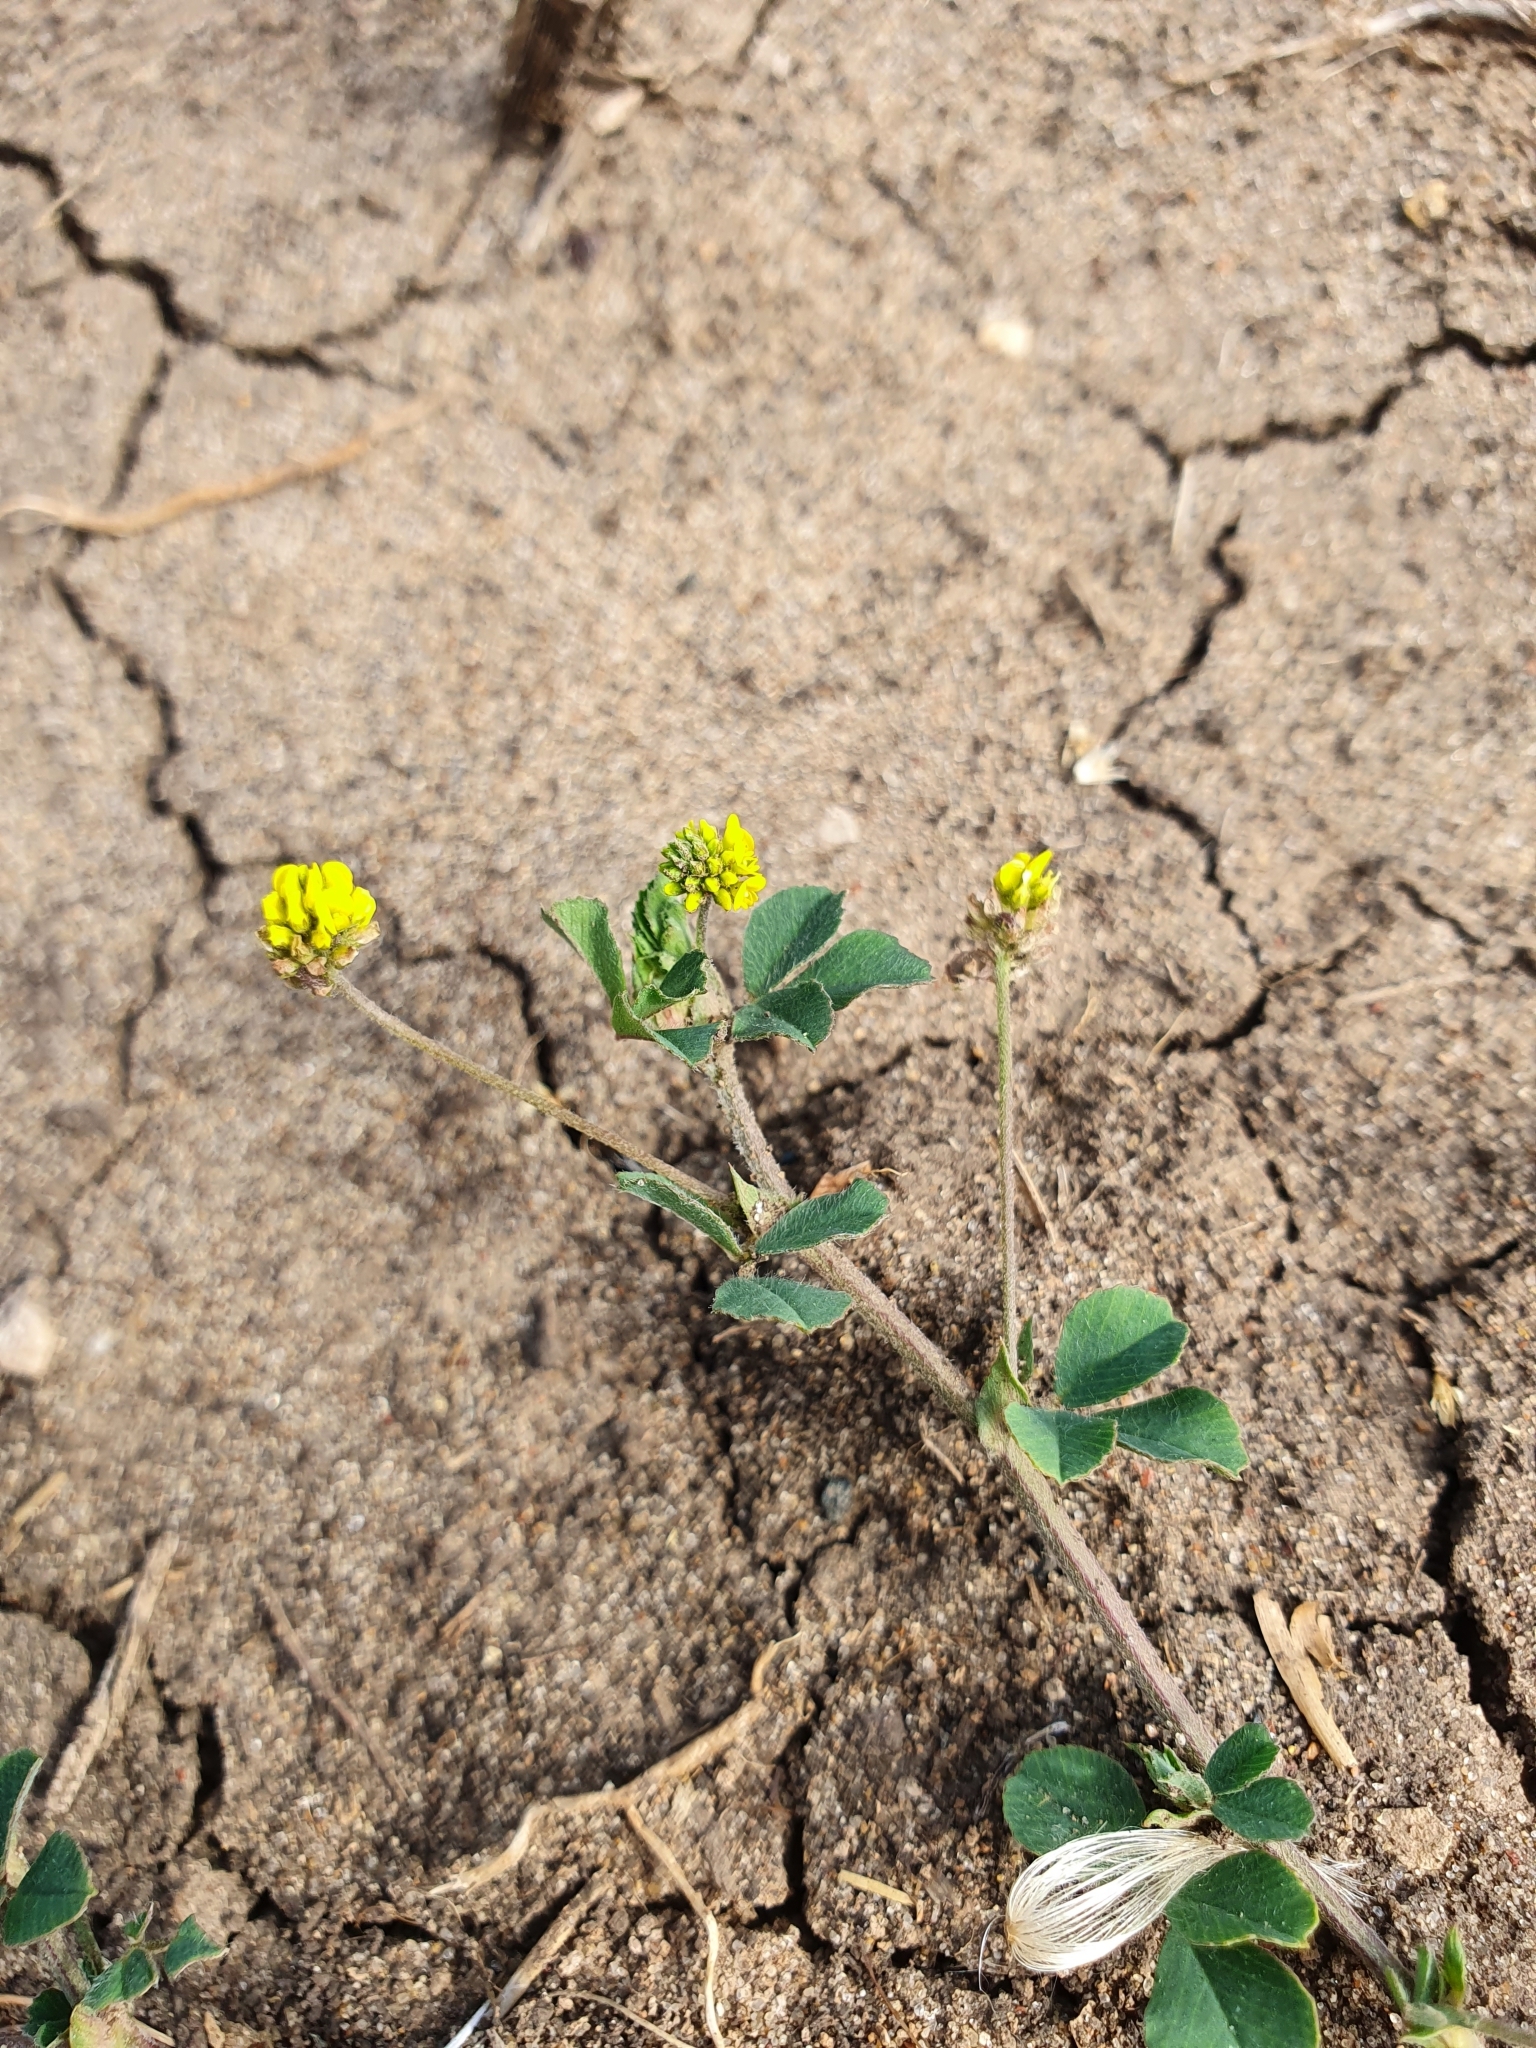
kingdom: Plantae
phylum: Tracheophyta
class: Magnoliopsida
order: Fabales
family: Fabaceae
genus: Medicago
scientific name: Medicago lupulina
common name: Black medick
